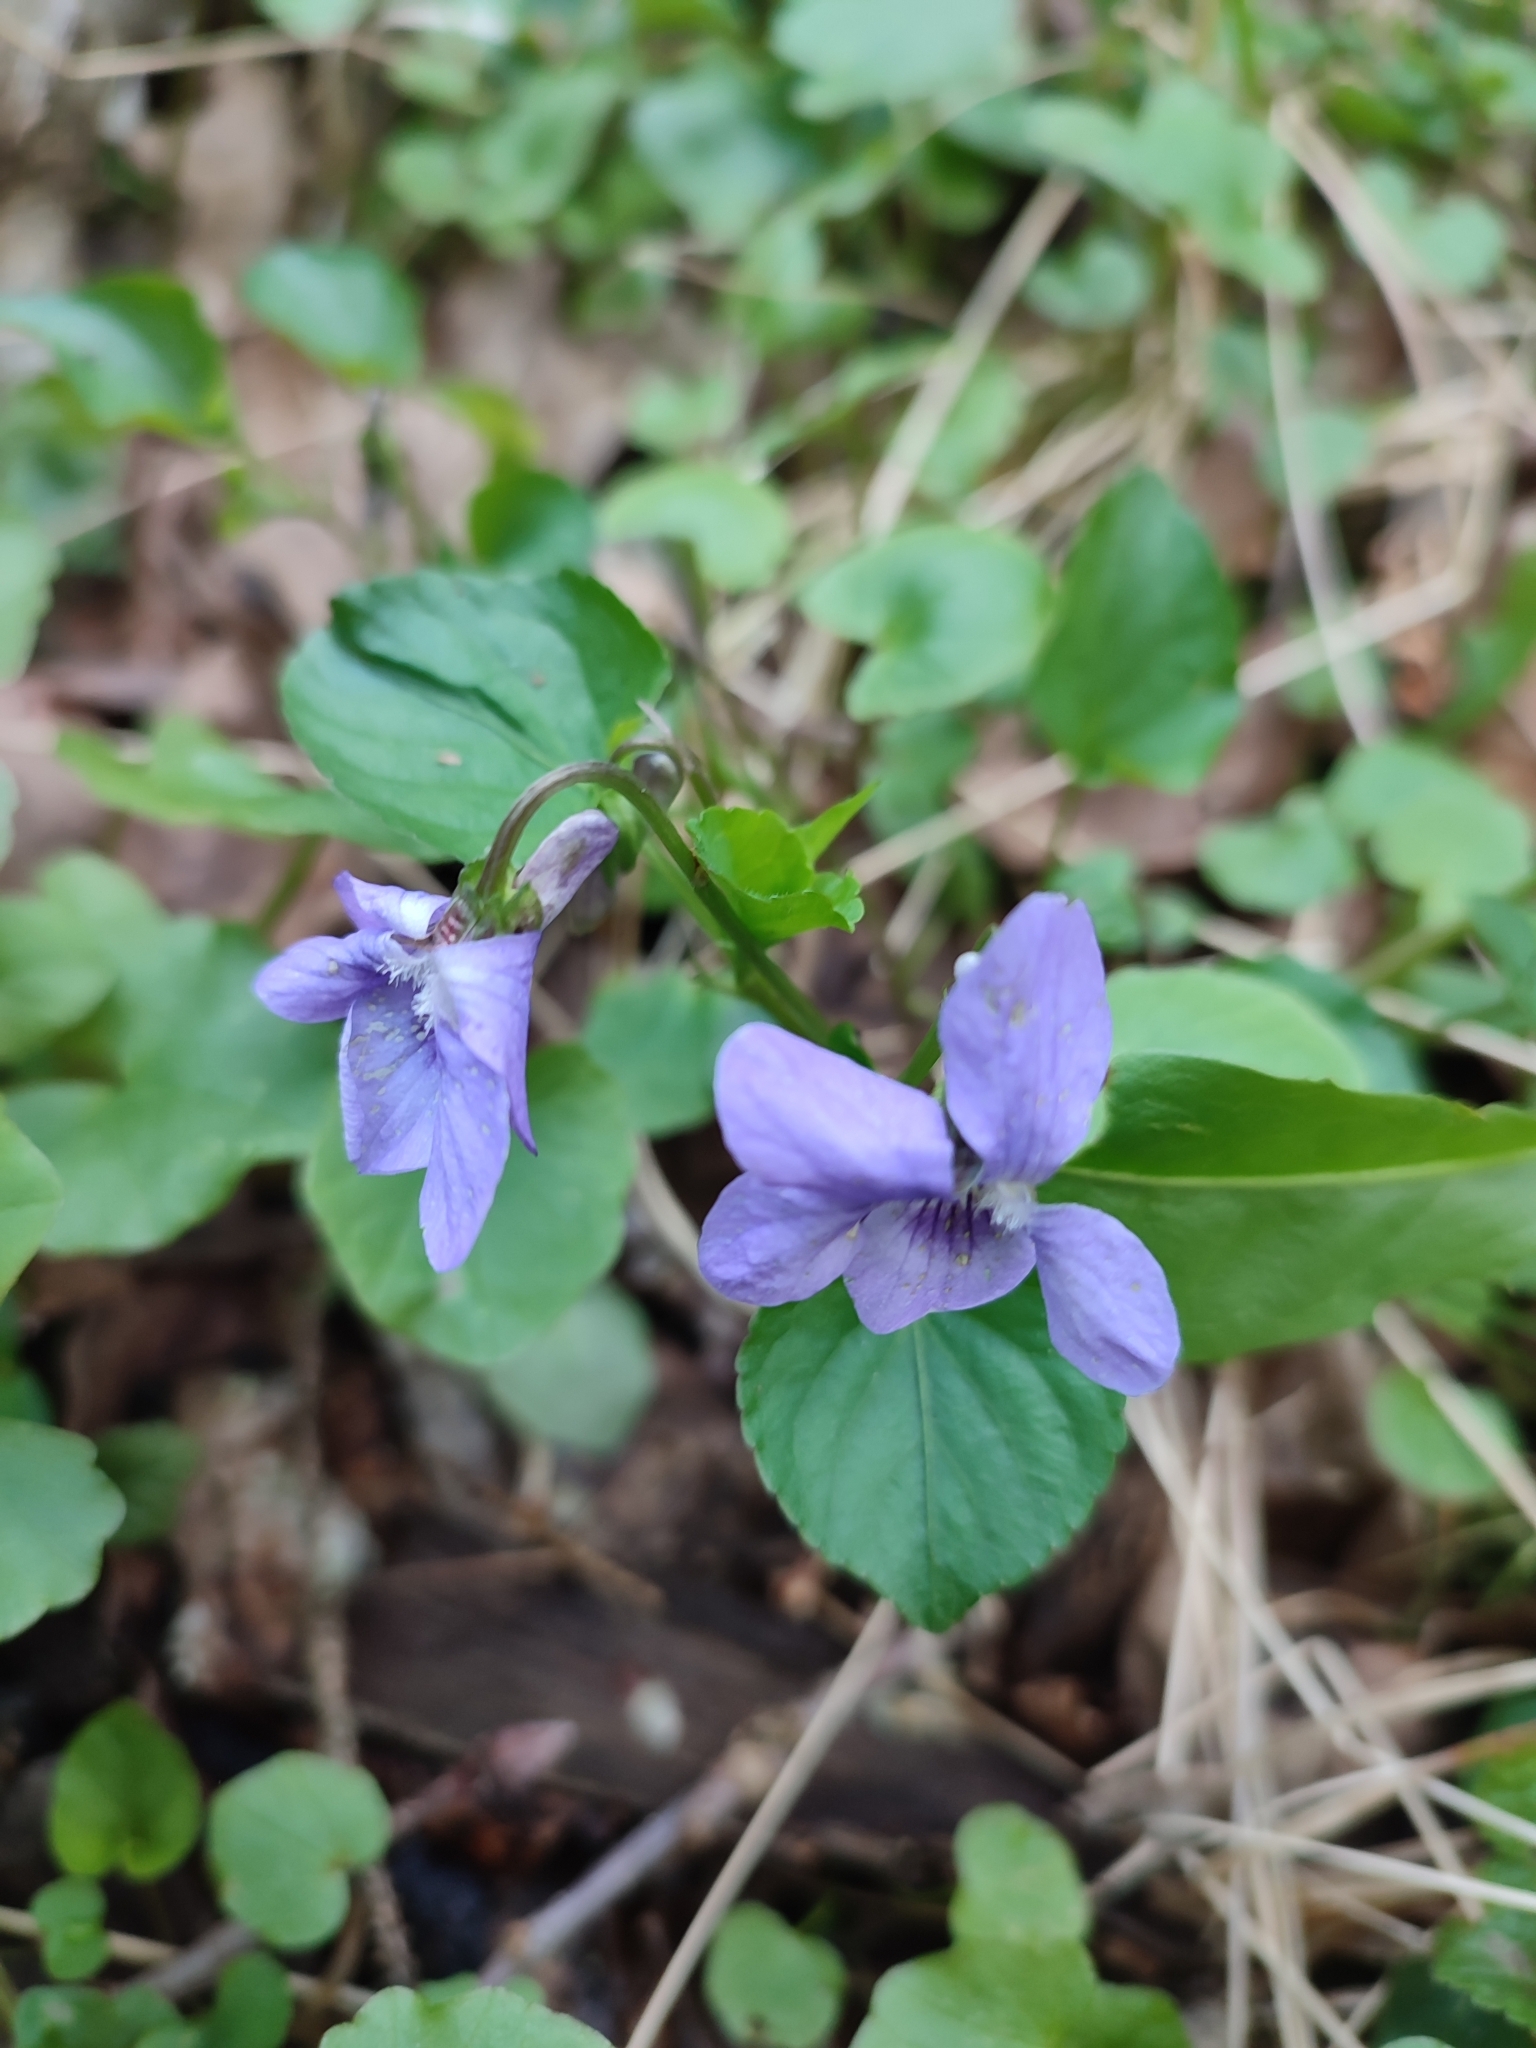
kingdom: Plantae
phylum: Tracheophyta
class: Magnoliopsida
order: Malpighiales
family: Violaceae
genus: Viola
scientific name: Viola reichenbachiana
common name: Early dog-violet
